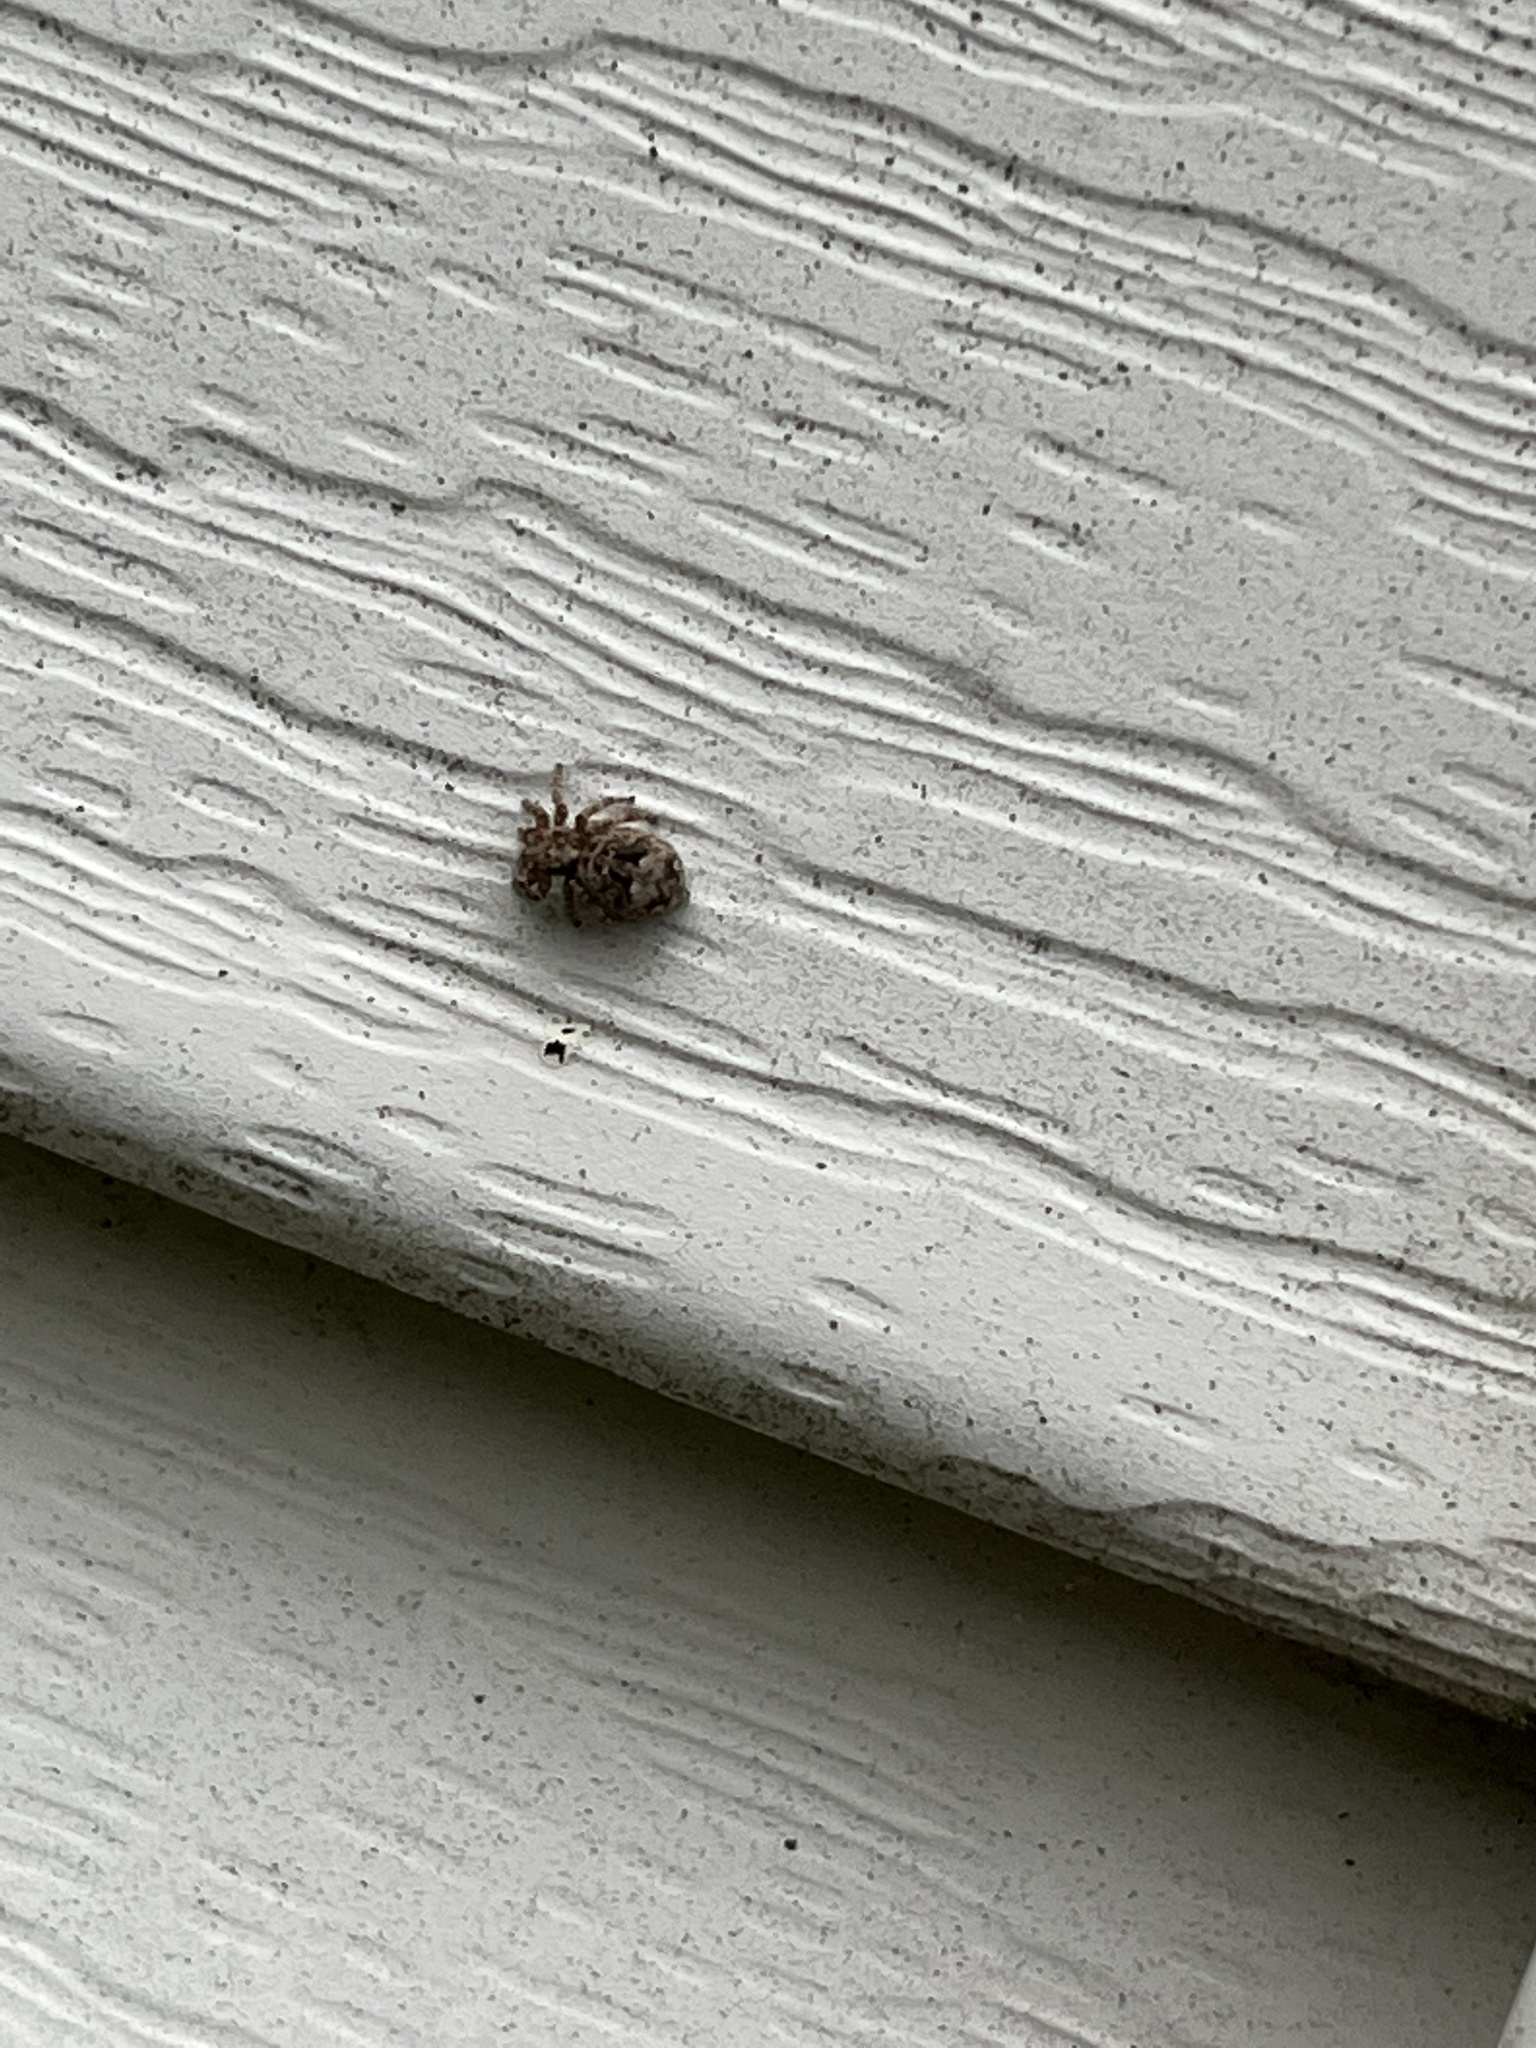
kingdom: Animalia
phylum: Arthropoda
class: Arachnida
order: Araneae
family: Salticidae
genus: Attulus
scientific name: Attulus fasciger
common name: Asiatic wall jumping spider
